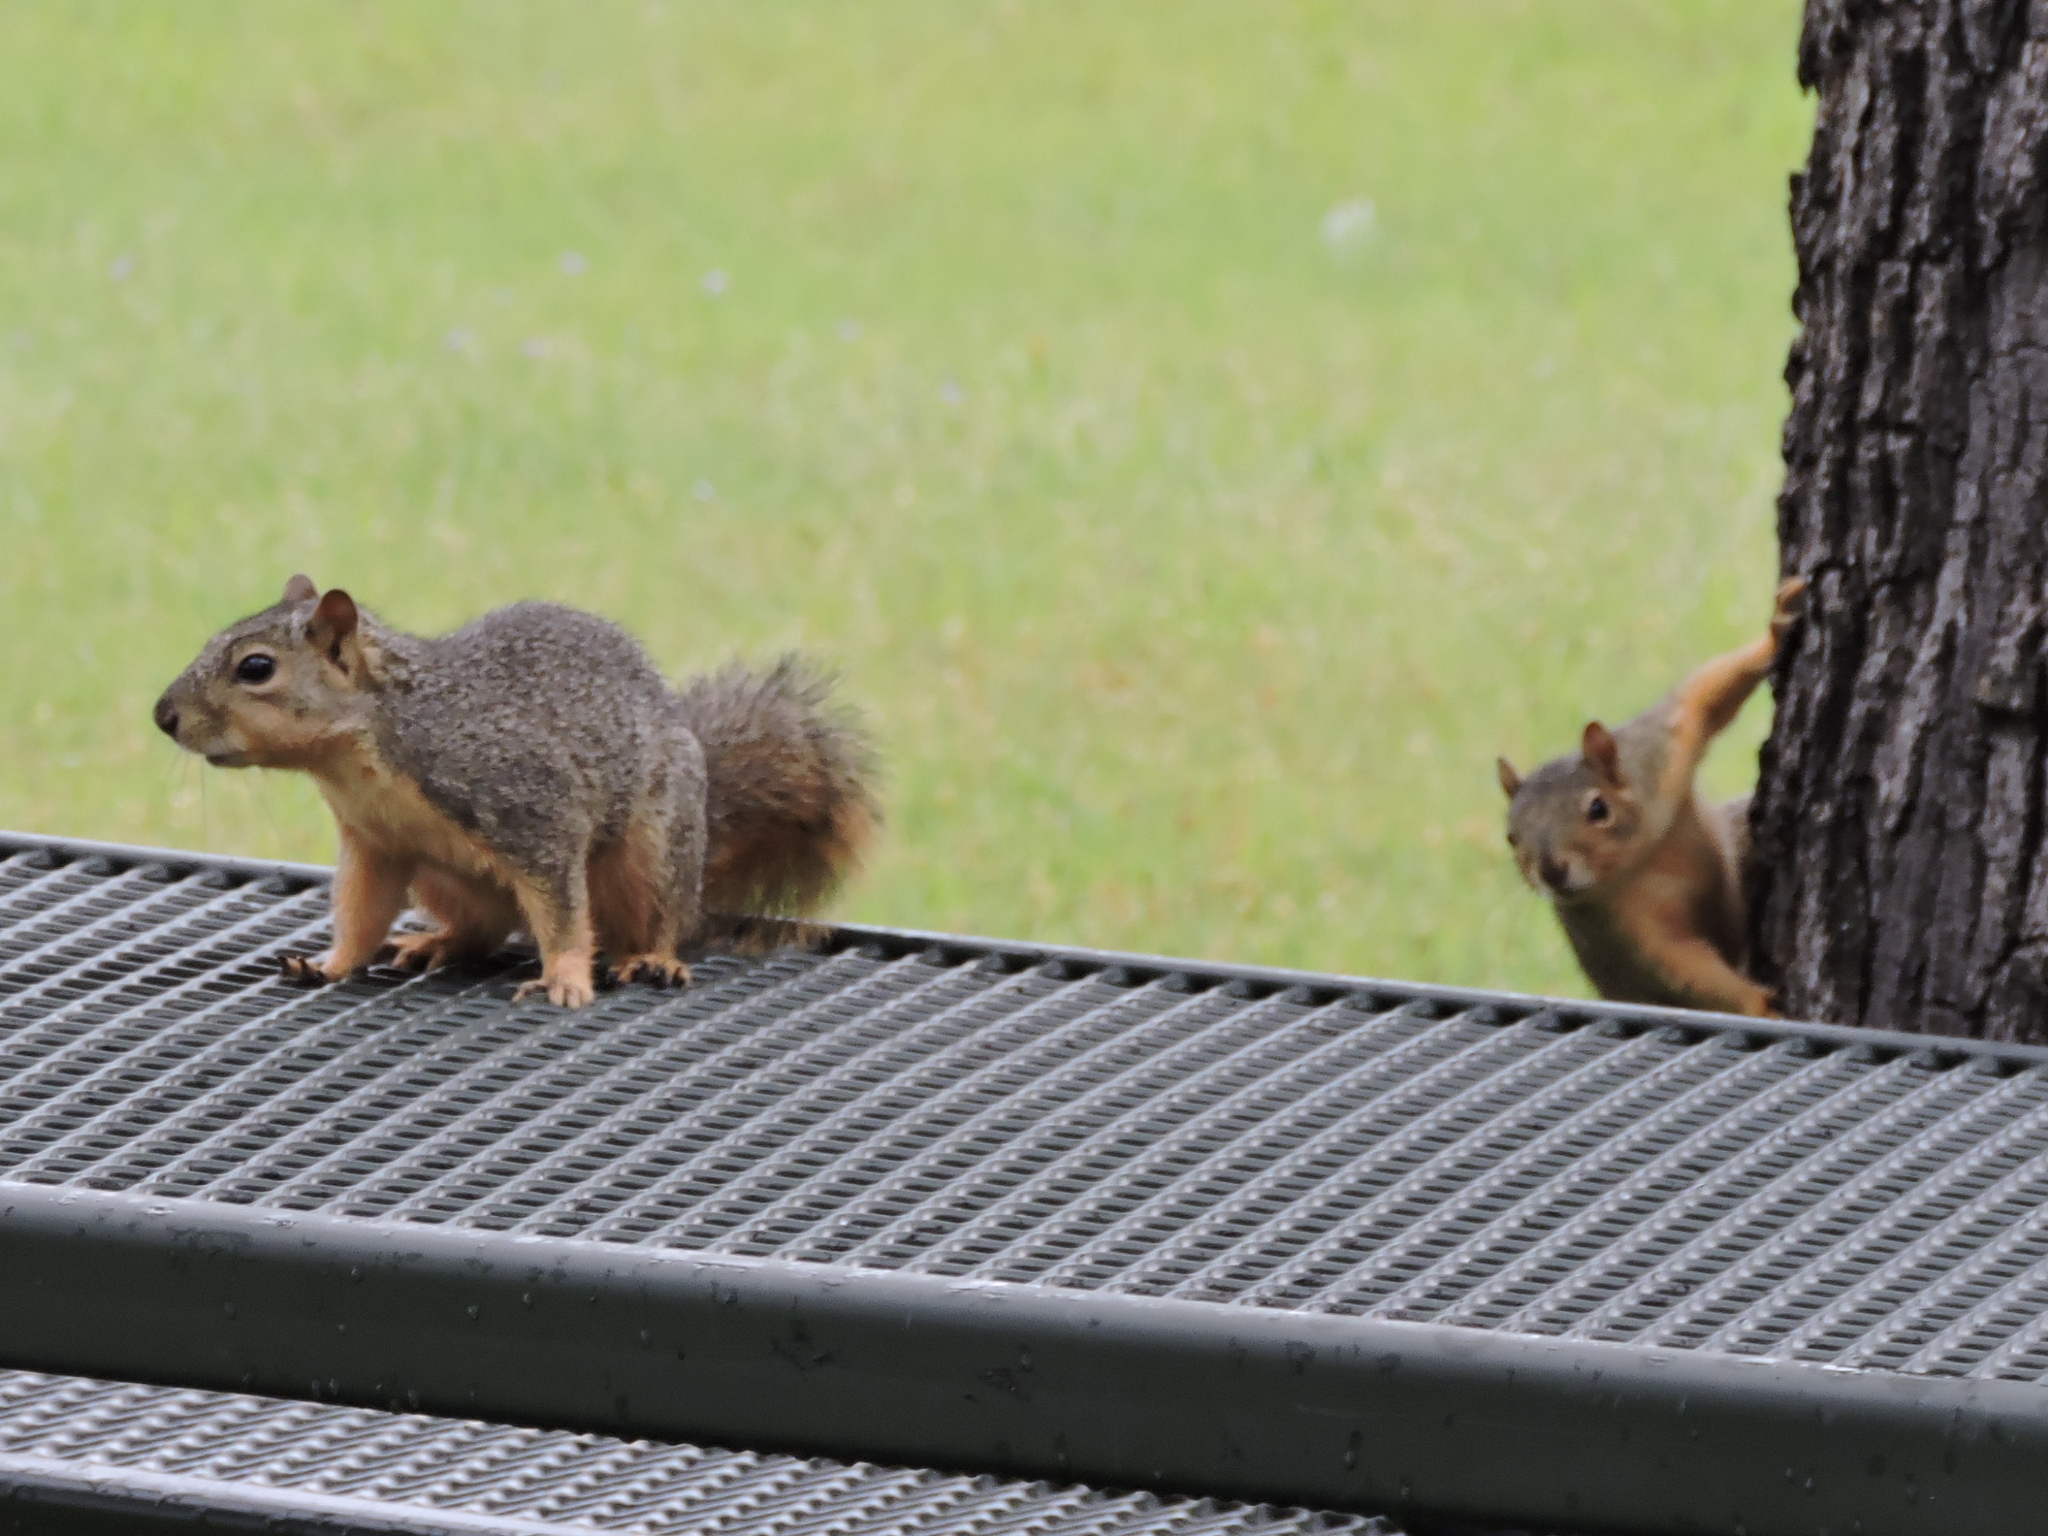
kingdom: Animalia
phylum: Chordata
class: Mammalia
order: Rodentia
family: Sciuridae
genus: Sciurus
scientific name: Sciurus niger
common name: Fox squirrel
